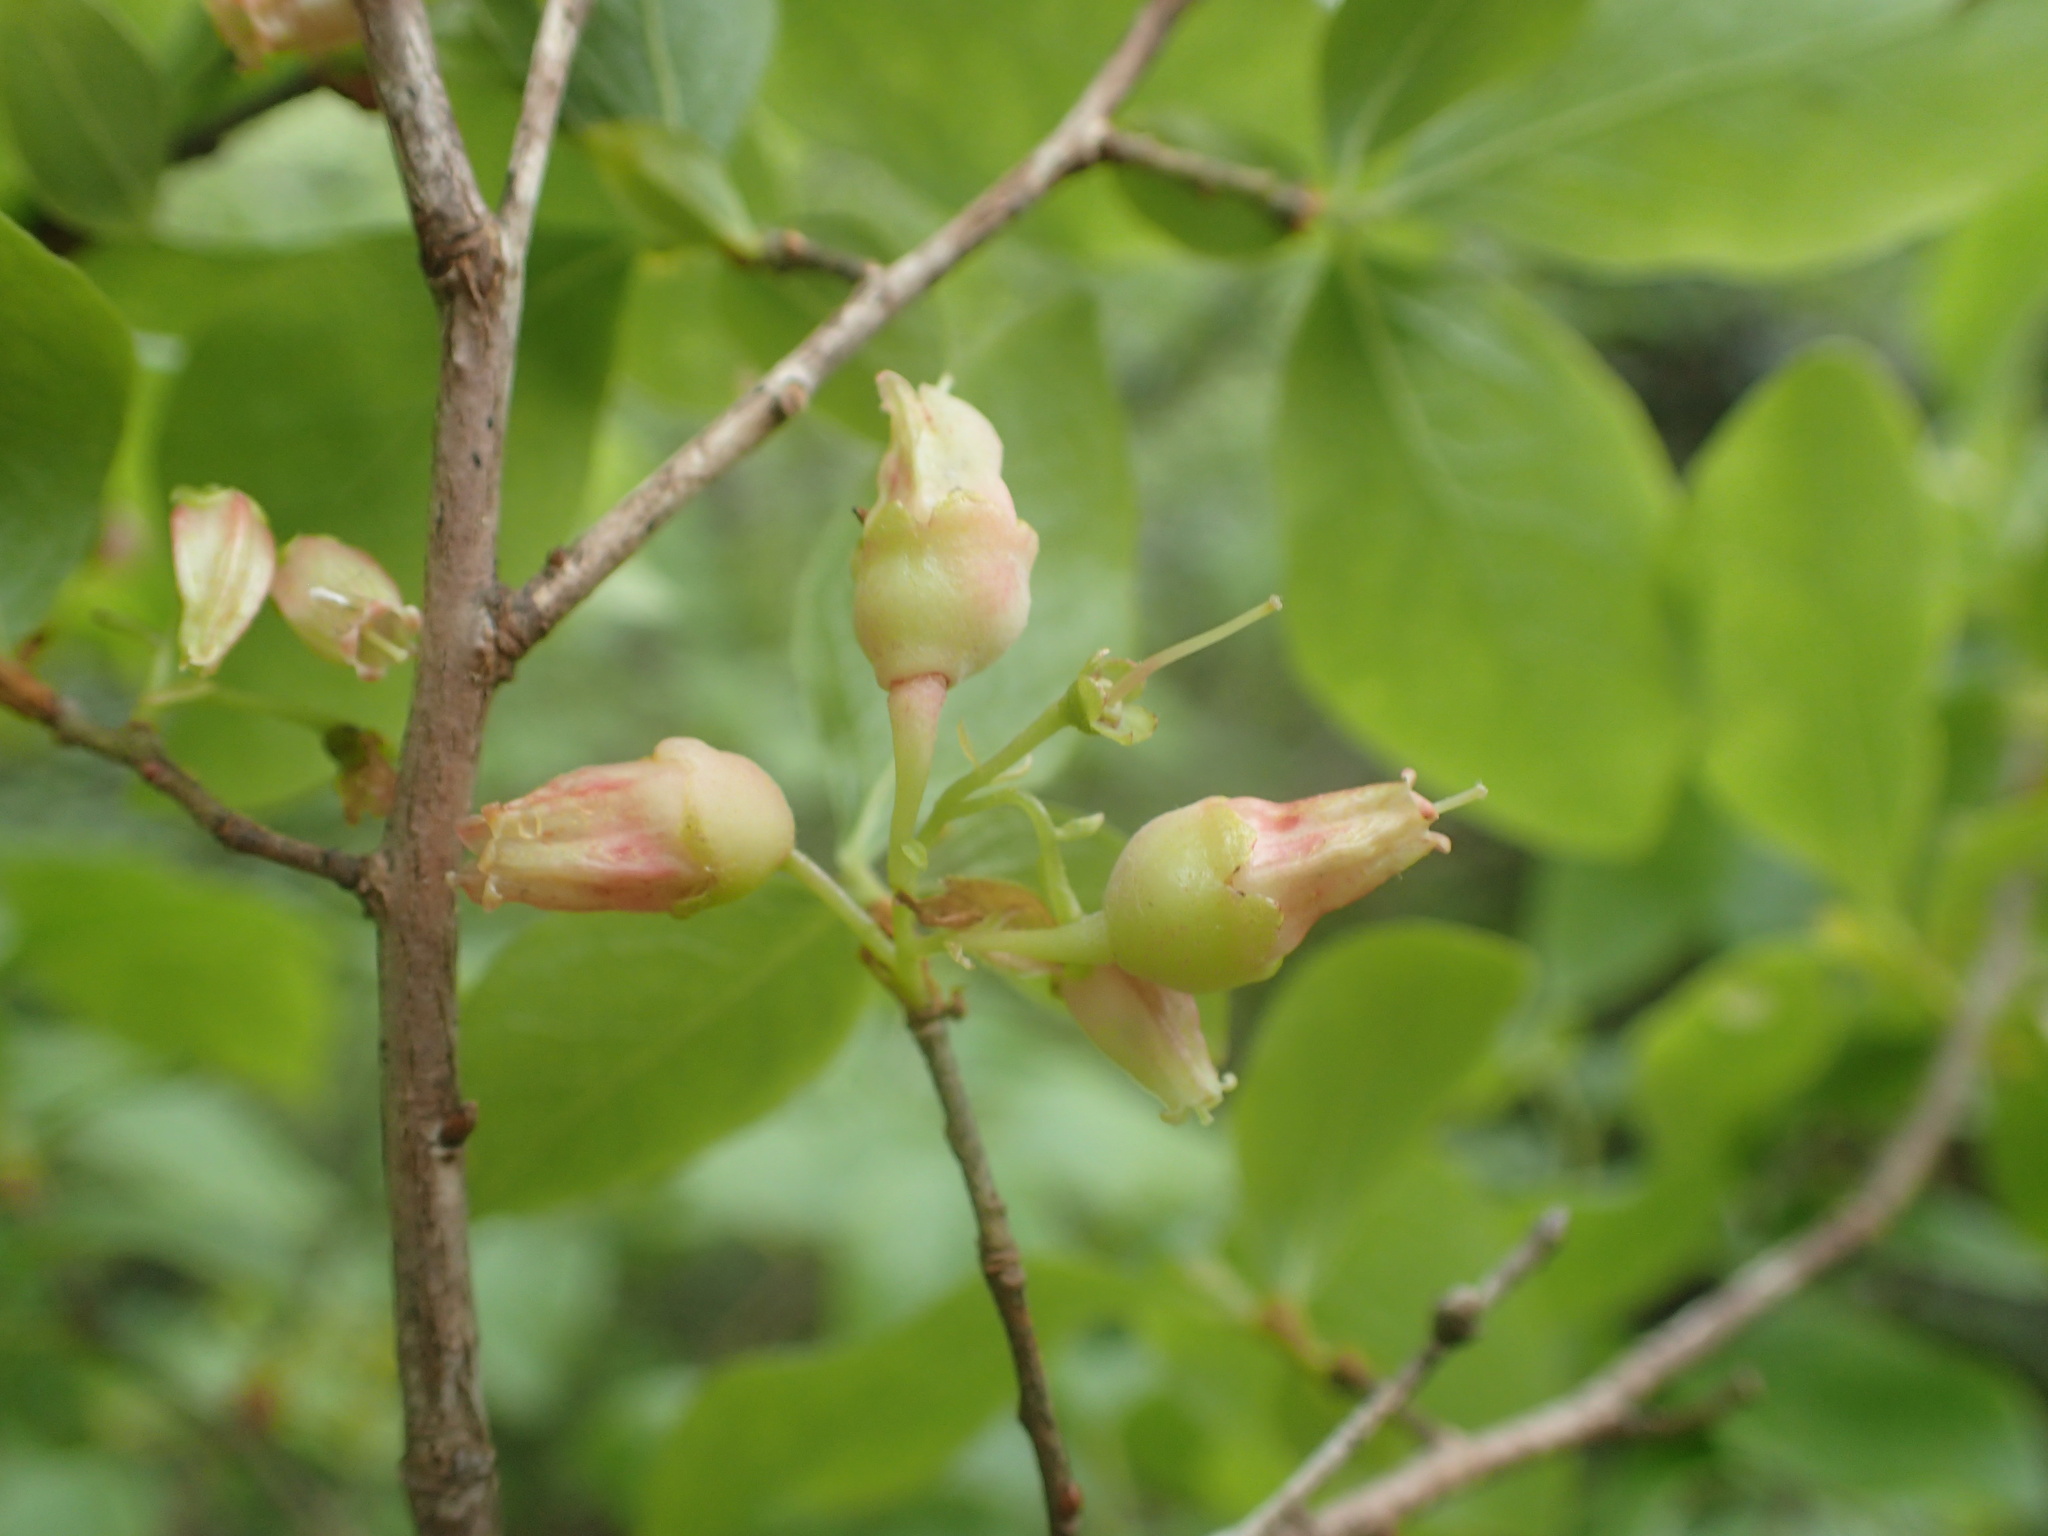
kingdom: Plantae
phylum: Tracheophyta
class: Magnoliopsida
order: Ericales
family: Ericaceae
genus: Gaylussacia
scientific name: Gaylussacia baccata
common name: Black huckleberry
